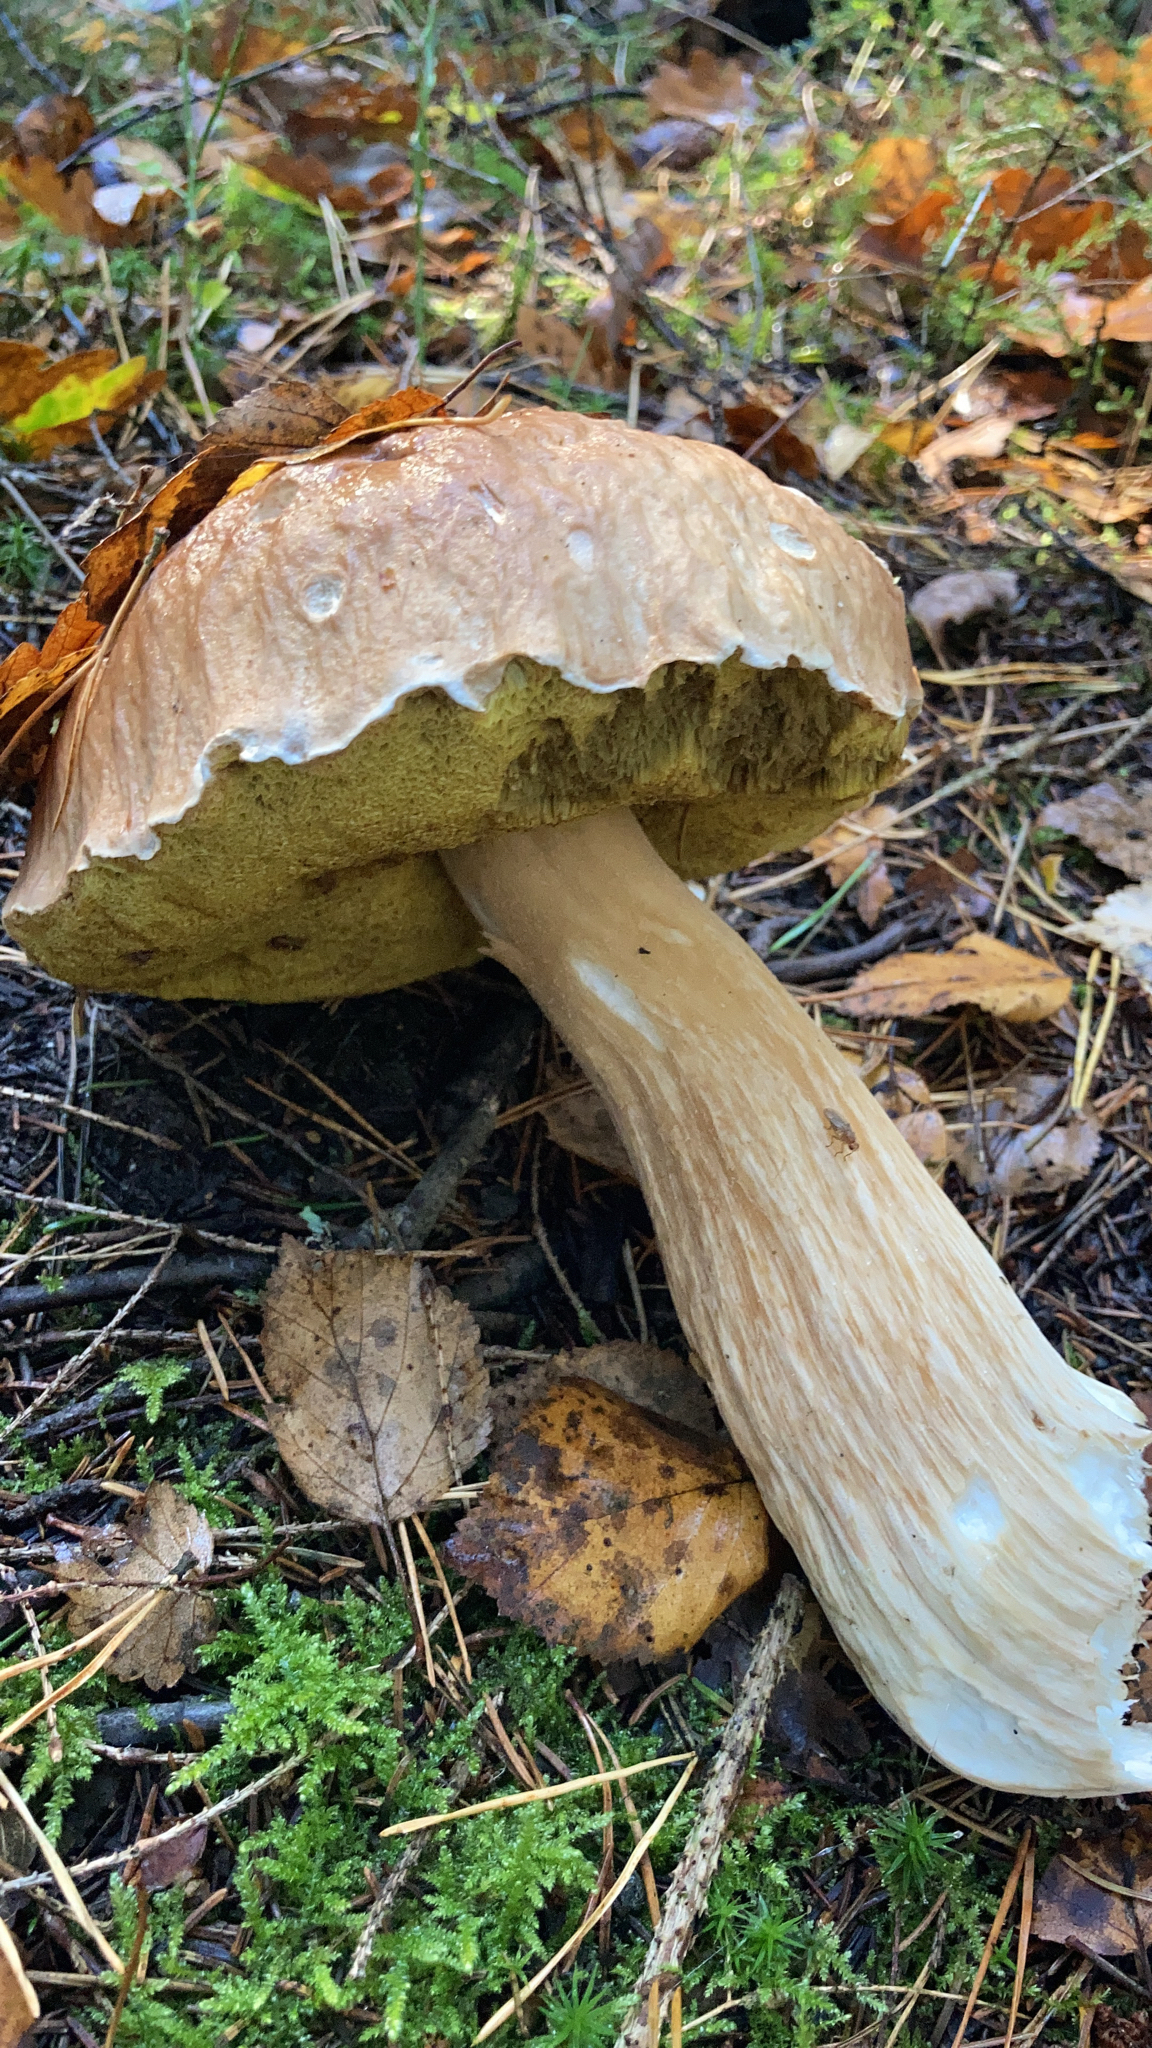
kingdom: Fungi
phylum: Basidiomycota
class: Agaricomycetes
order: Boletales
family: Boletaceae
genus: Boletus
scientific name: Boletus edulis
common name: Cep
